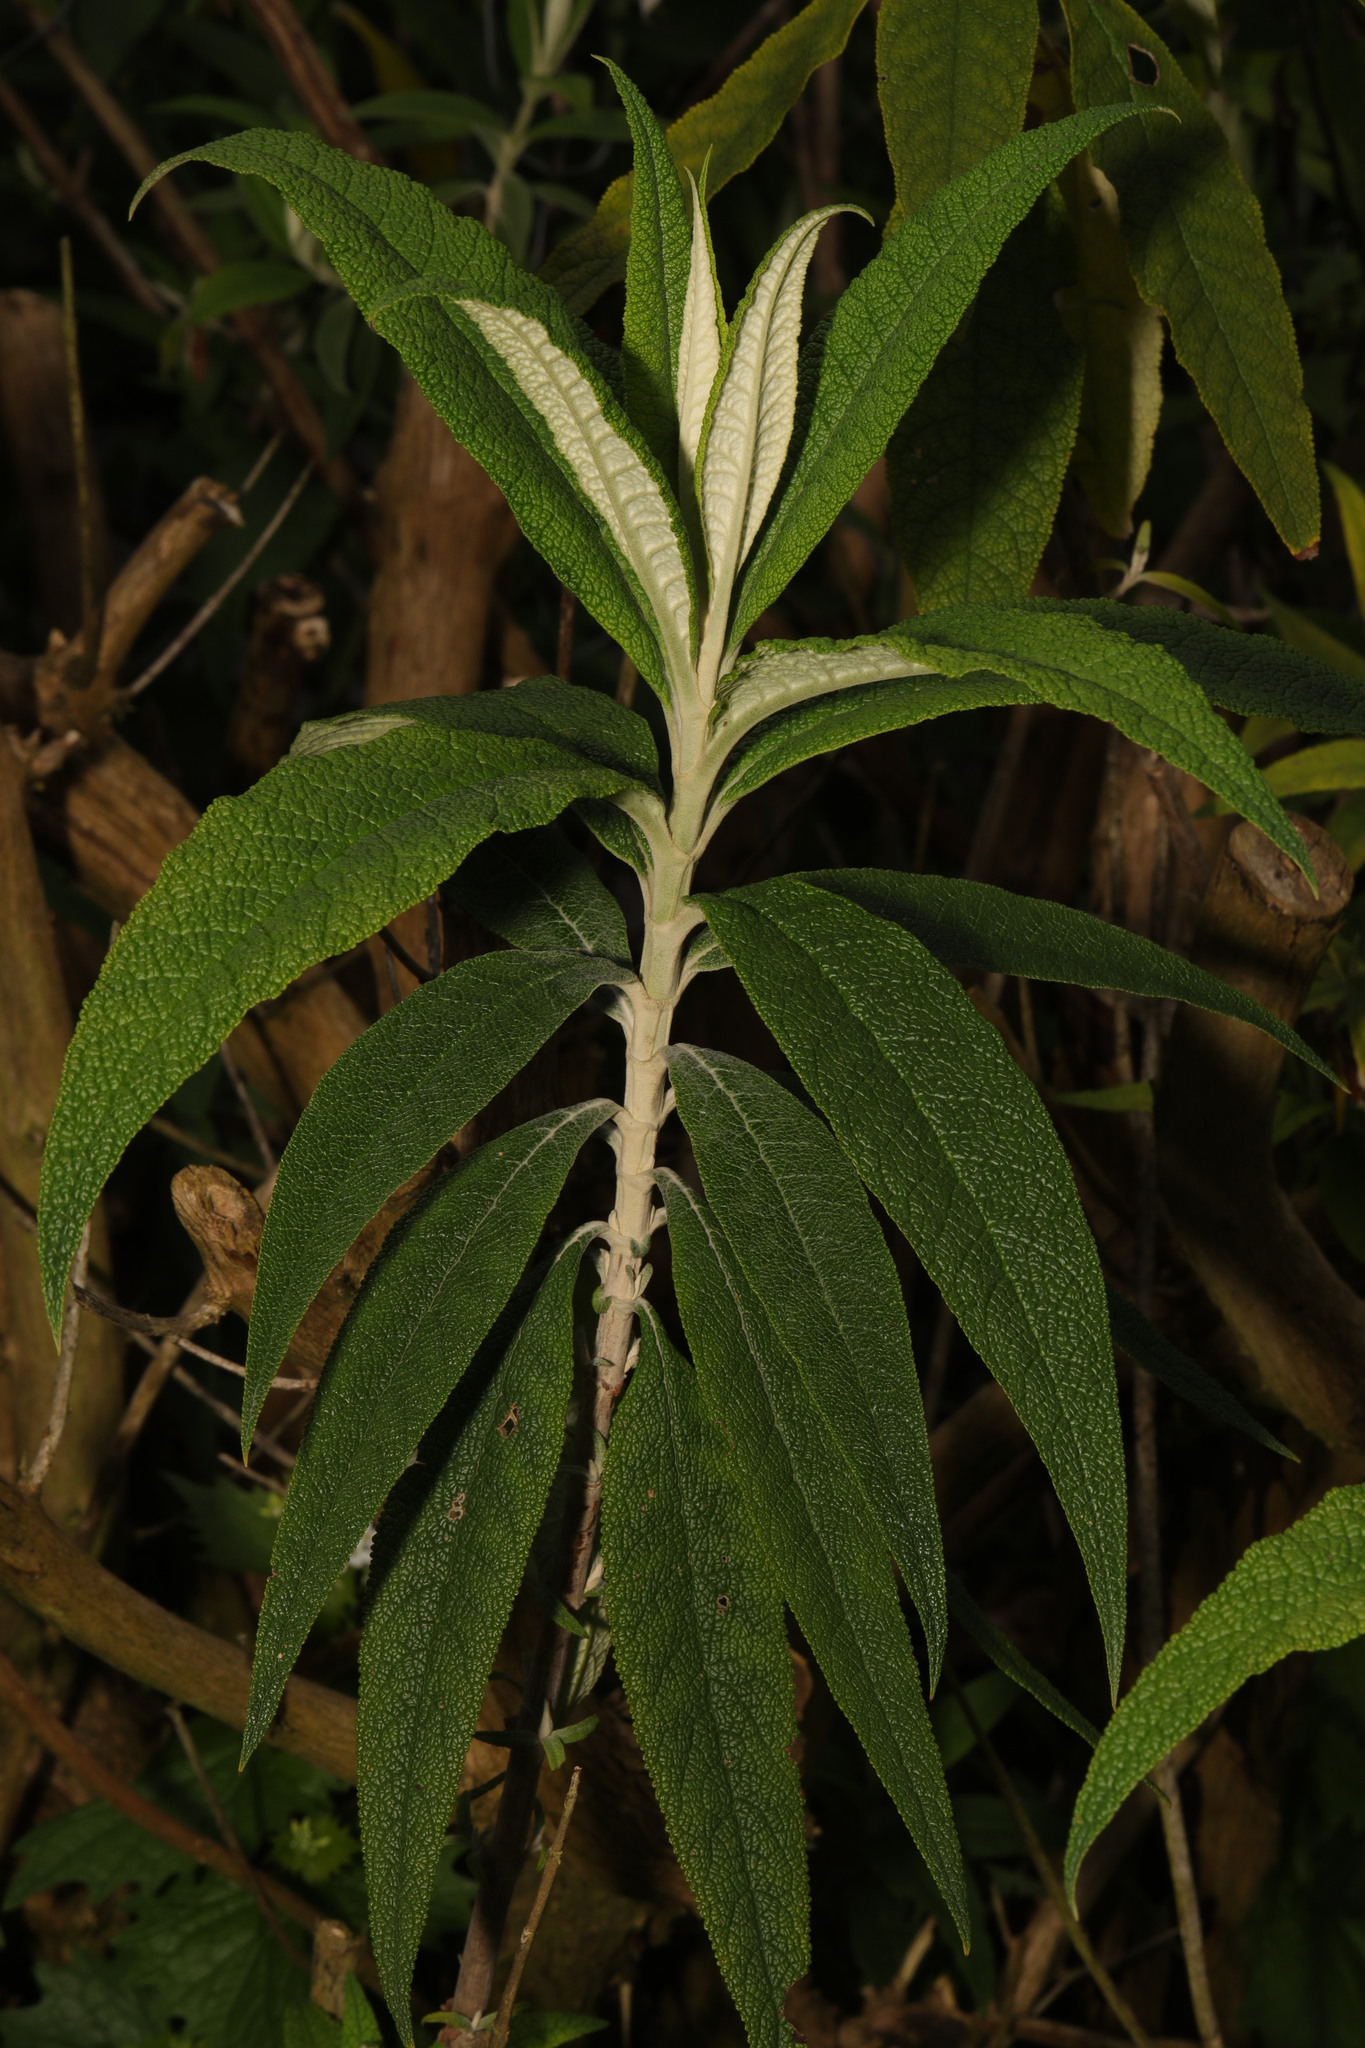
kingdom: Plantae
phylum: Tracheophyta
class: Magnoliopsida
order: Lamiales
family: Scrophulariaceae
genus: Buddleja
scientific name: Buddleja globosa
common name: Orange-ball-tree
